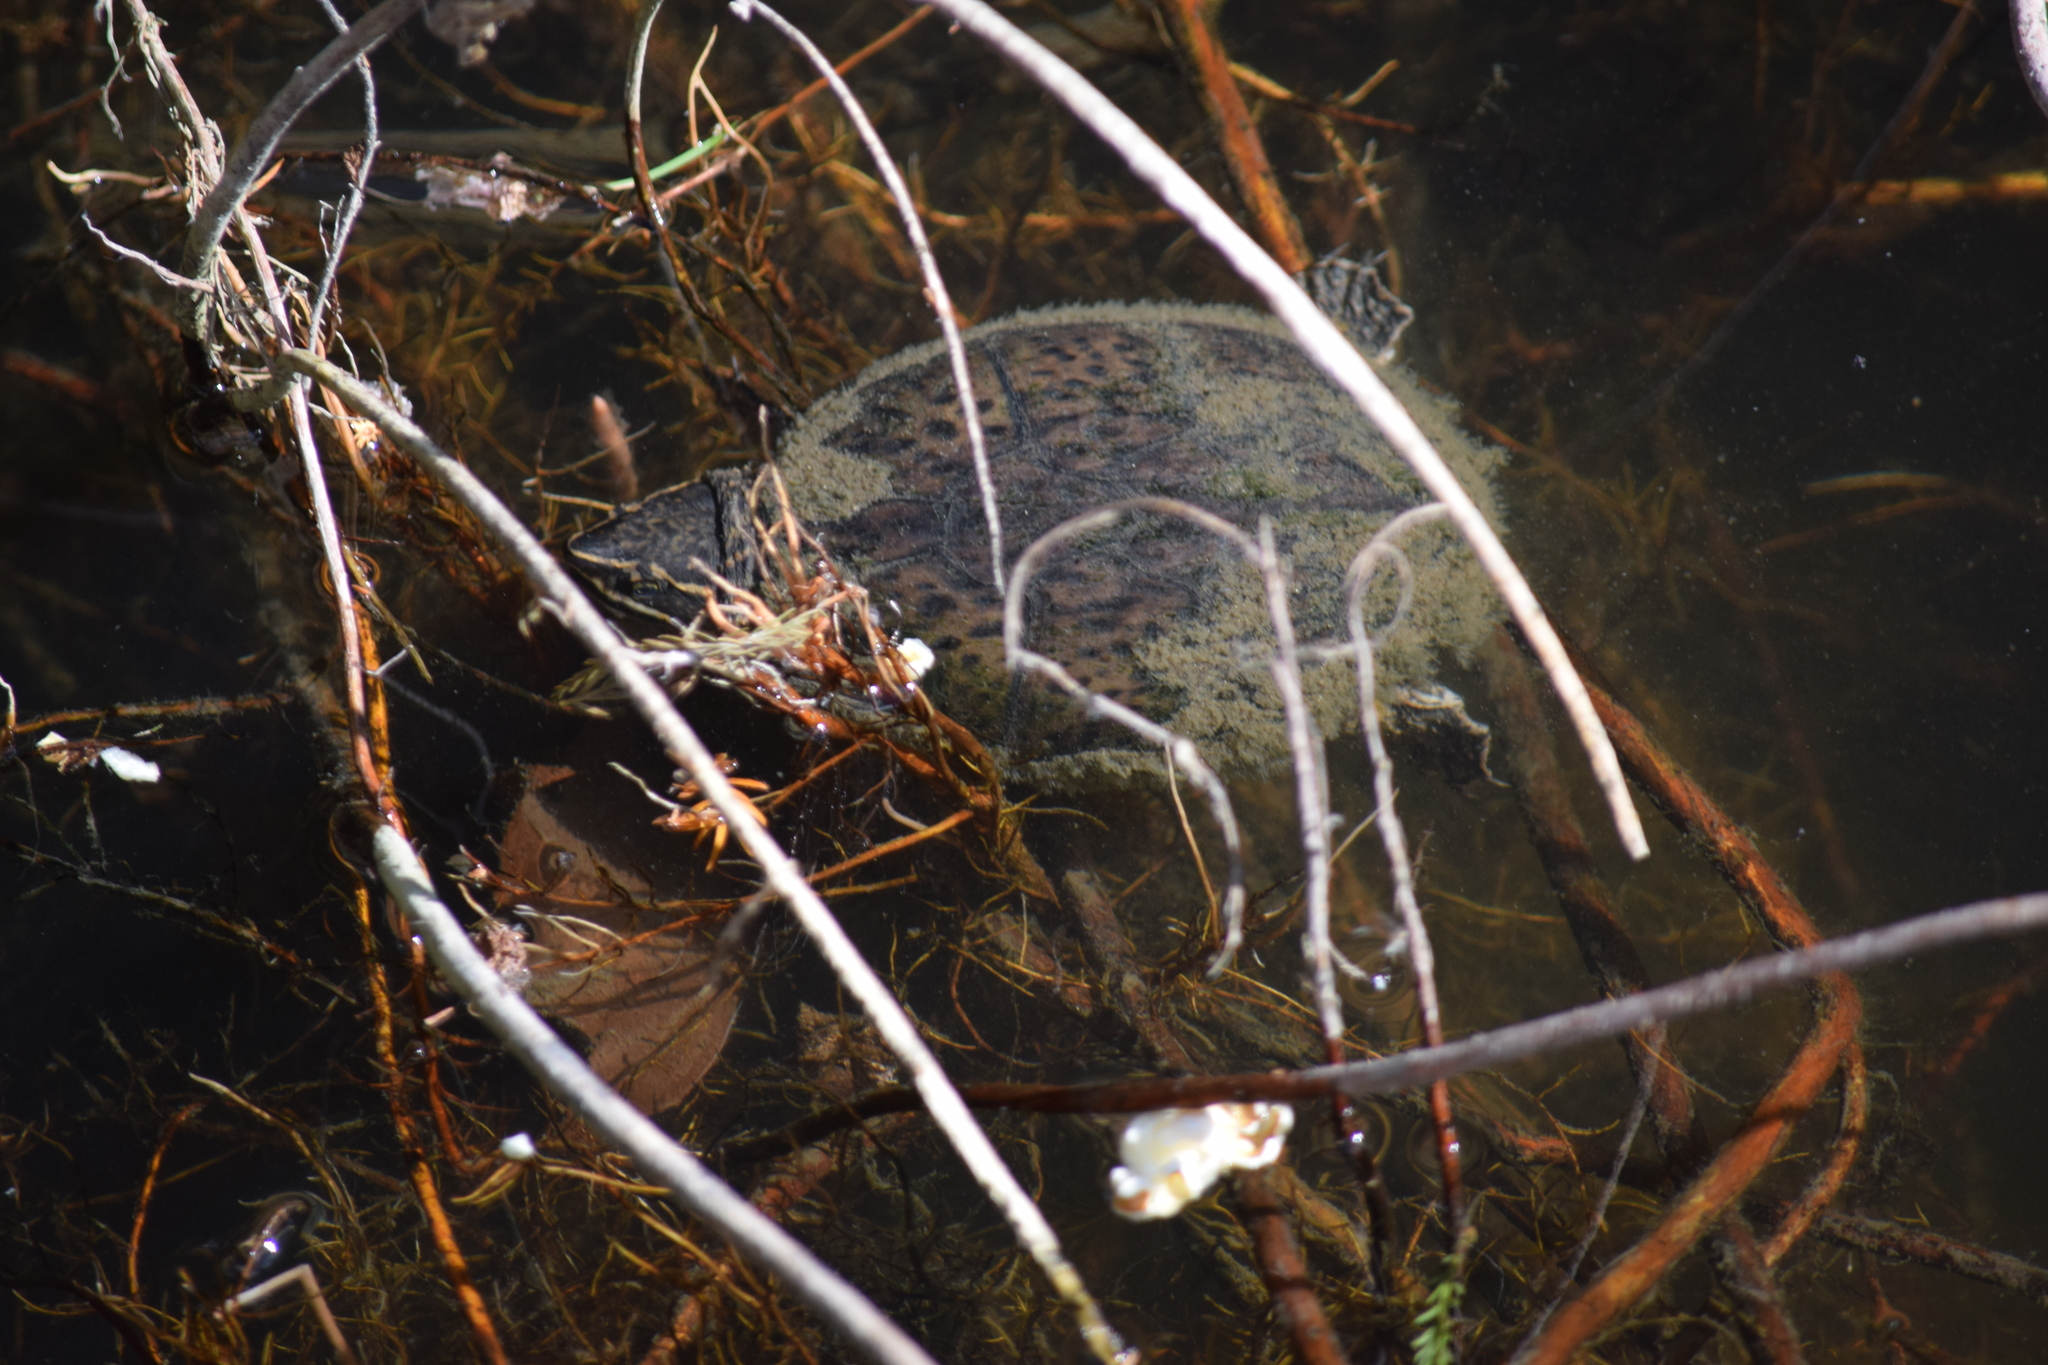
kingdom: Animalia
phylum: Chordata
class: Testudines
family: Kinosternidae
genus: Sternotherus
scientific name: Sternotherus odoratus
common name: Common musk turtle
